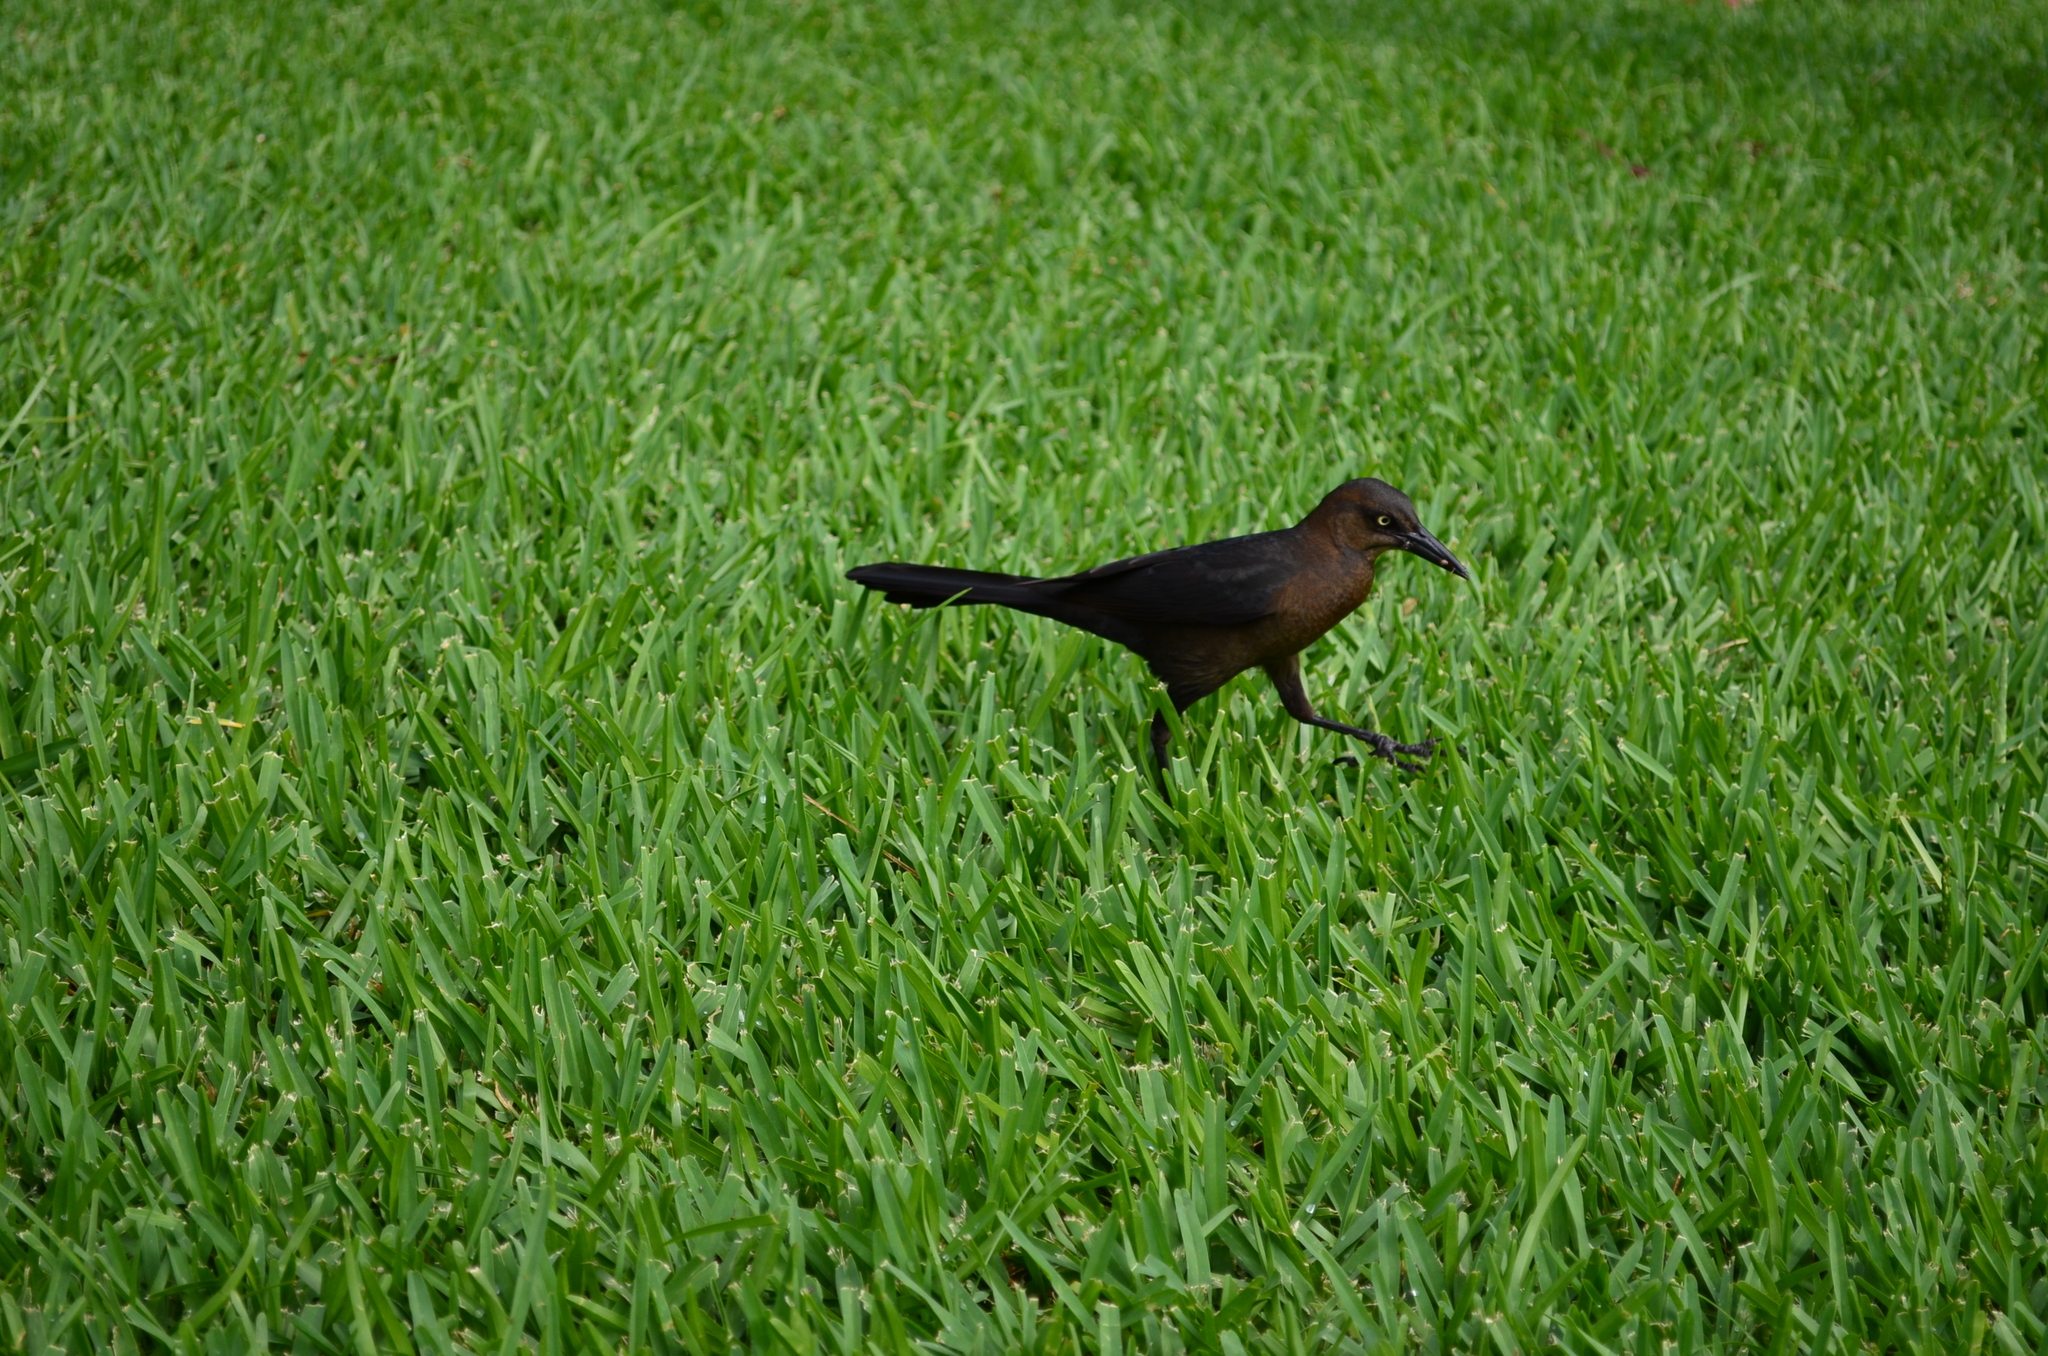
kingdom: Animalia
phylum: Chordata
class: Aves
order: Passeriformes
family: Icteridae
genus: Quiscalus
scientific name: Quiscalus mexicanus
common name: Great-tailed grackle
